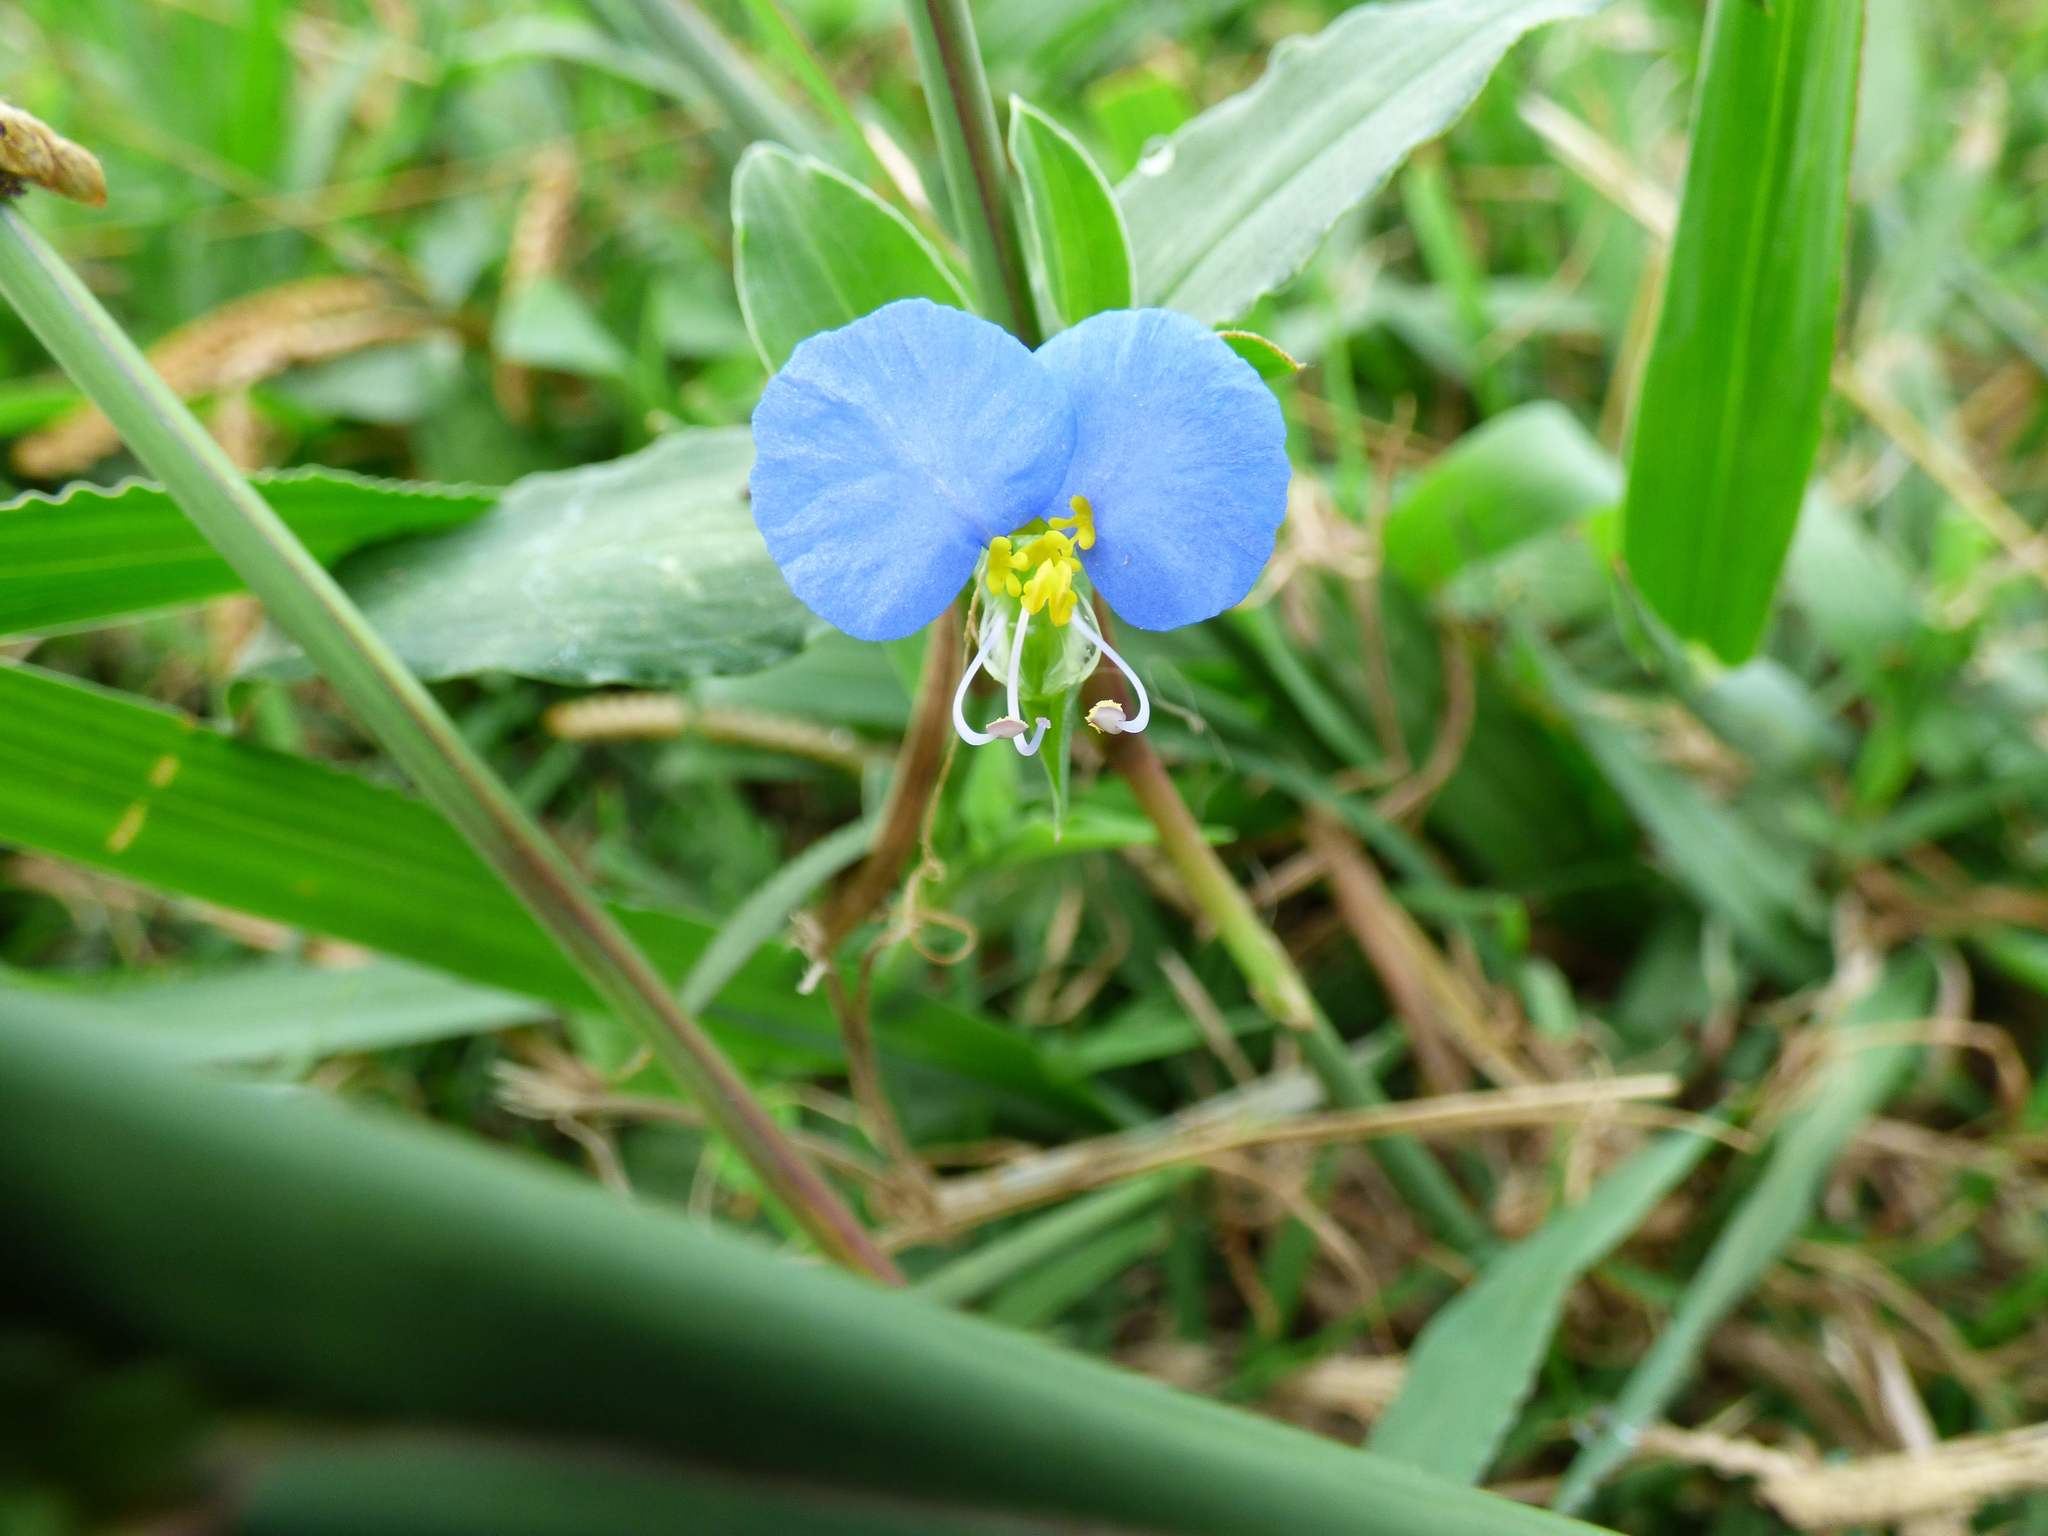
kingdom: Plantae
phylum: Tracheophyta
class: Liliopsida
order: Commelinales
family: Commelinaceae
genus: Commelina
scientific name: Commelina erecta
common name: Blousel blommetjie
